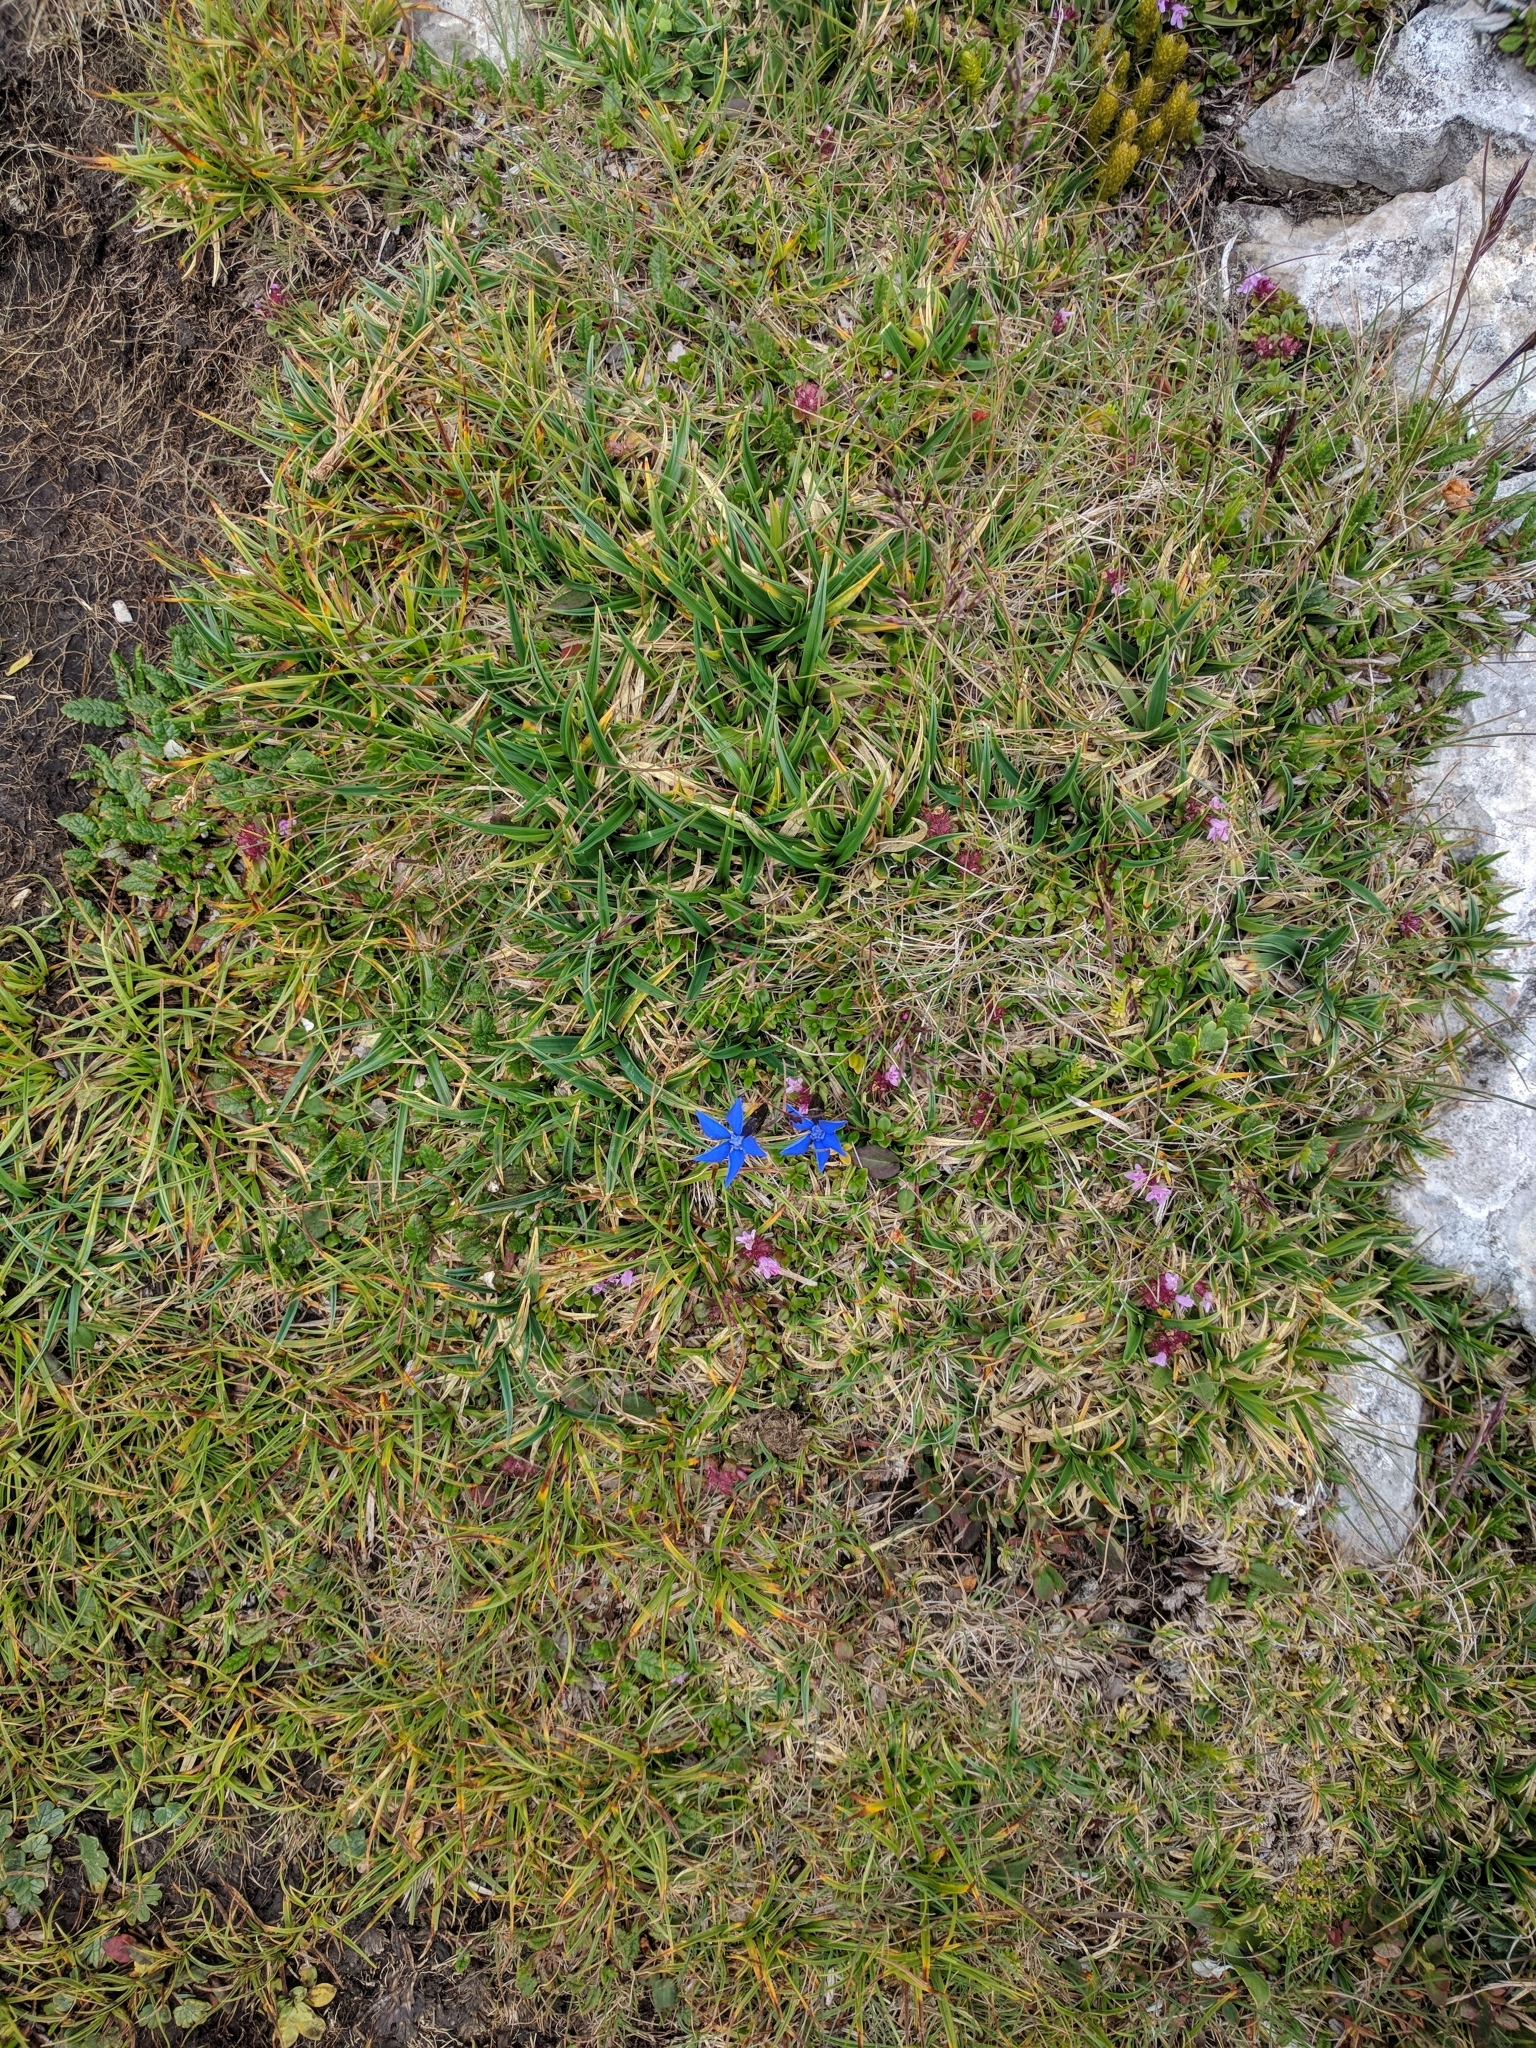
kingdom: Plantae
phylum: Tracheophyta
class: Magnoliopsida
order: Gentianales
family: Gentianaceae
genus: Gentiana
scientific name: Gentiana pumila
